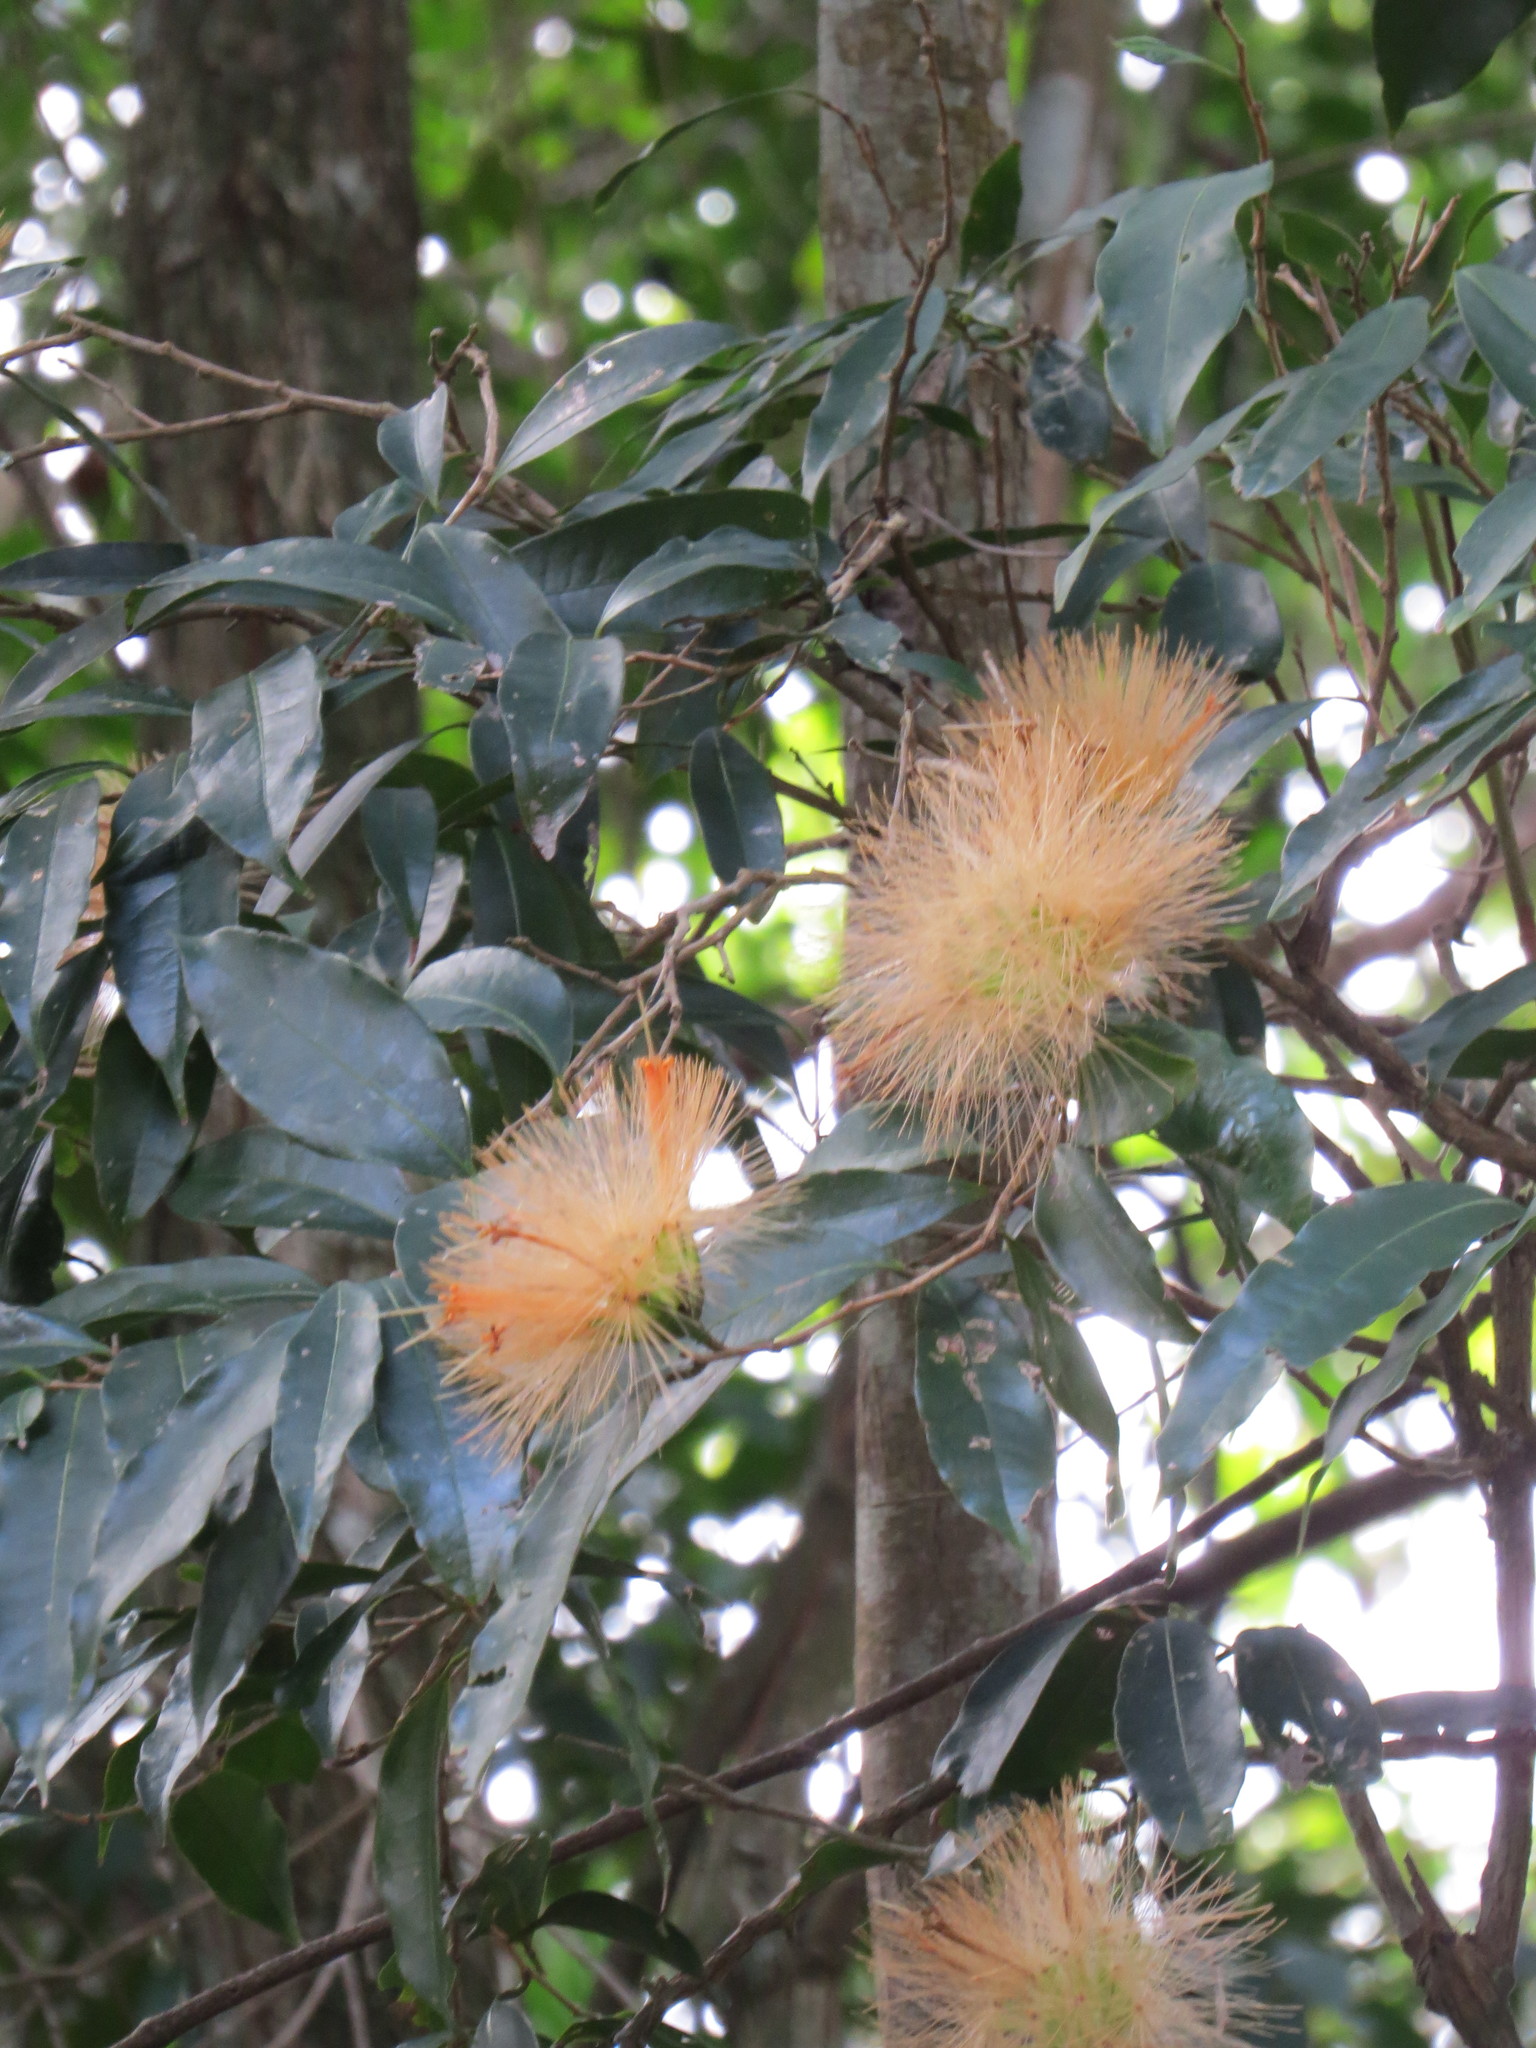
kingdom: Plantae
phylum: Tracheophyta
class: Magnoliopsida
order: Asterales
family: Asteraceae
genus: Stifftia
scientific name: Stifftia chrysantha
